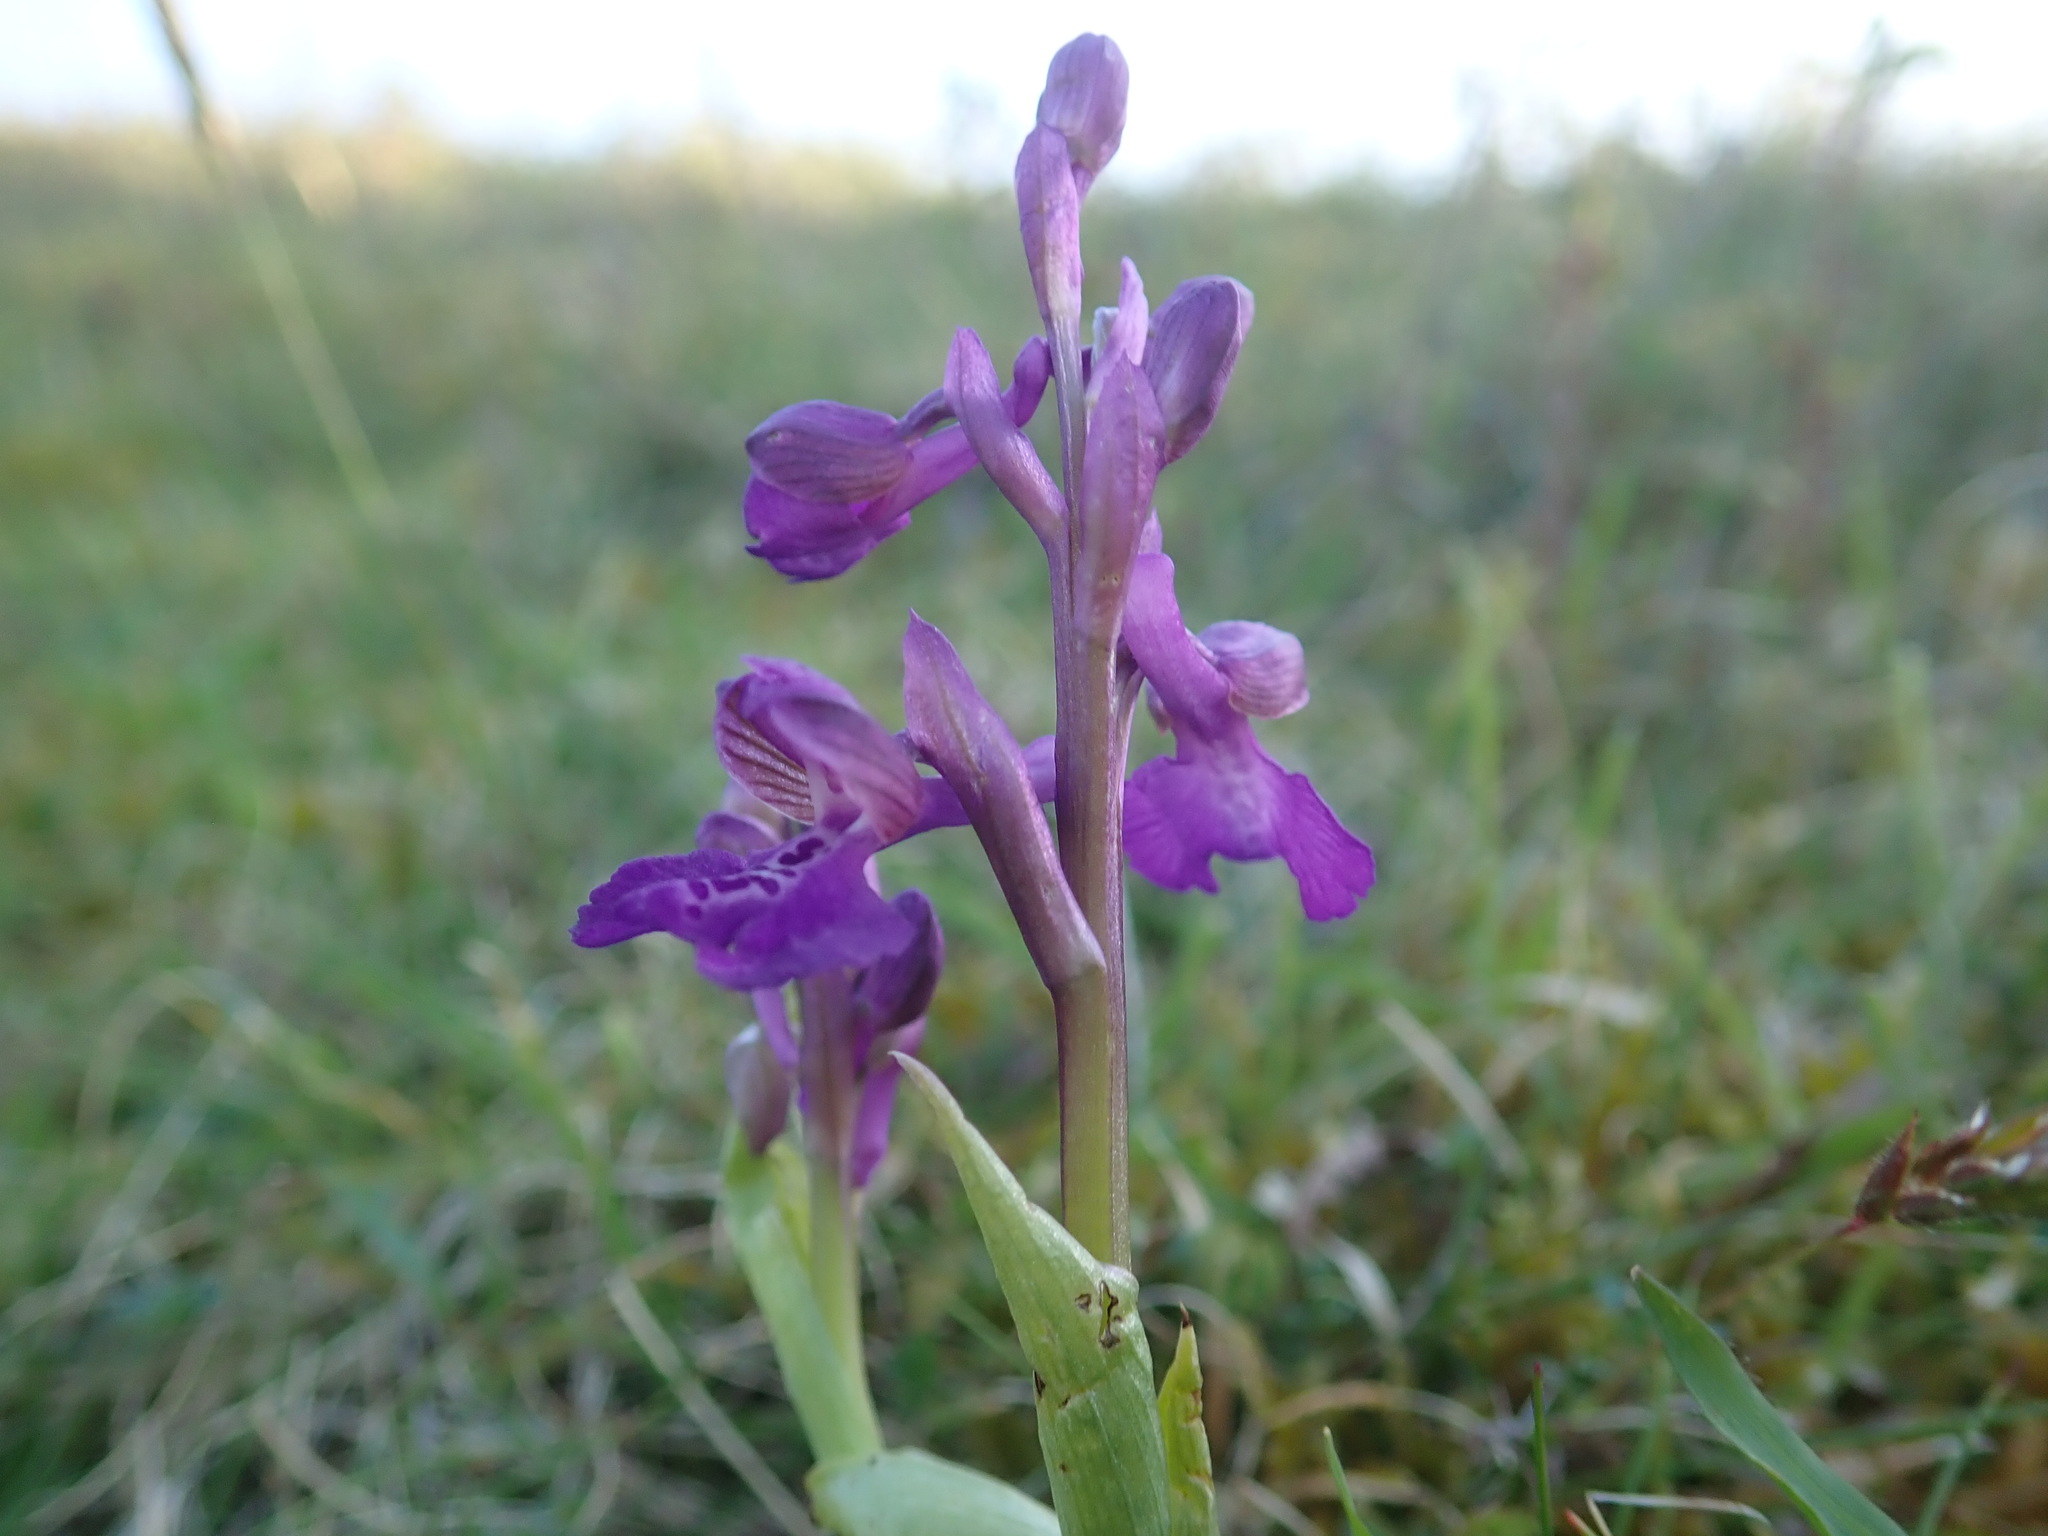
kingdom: Plantae
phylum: Tracheophyta
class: Liliopsida
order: Asparagales
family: Orchidaceae
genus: Anacamptis
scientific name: Anacamptis morio
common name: Green-winged orchid
